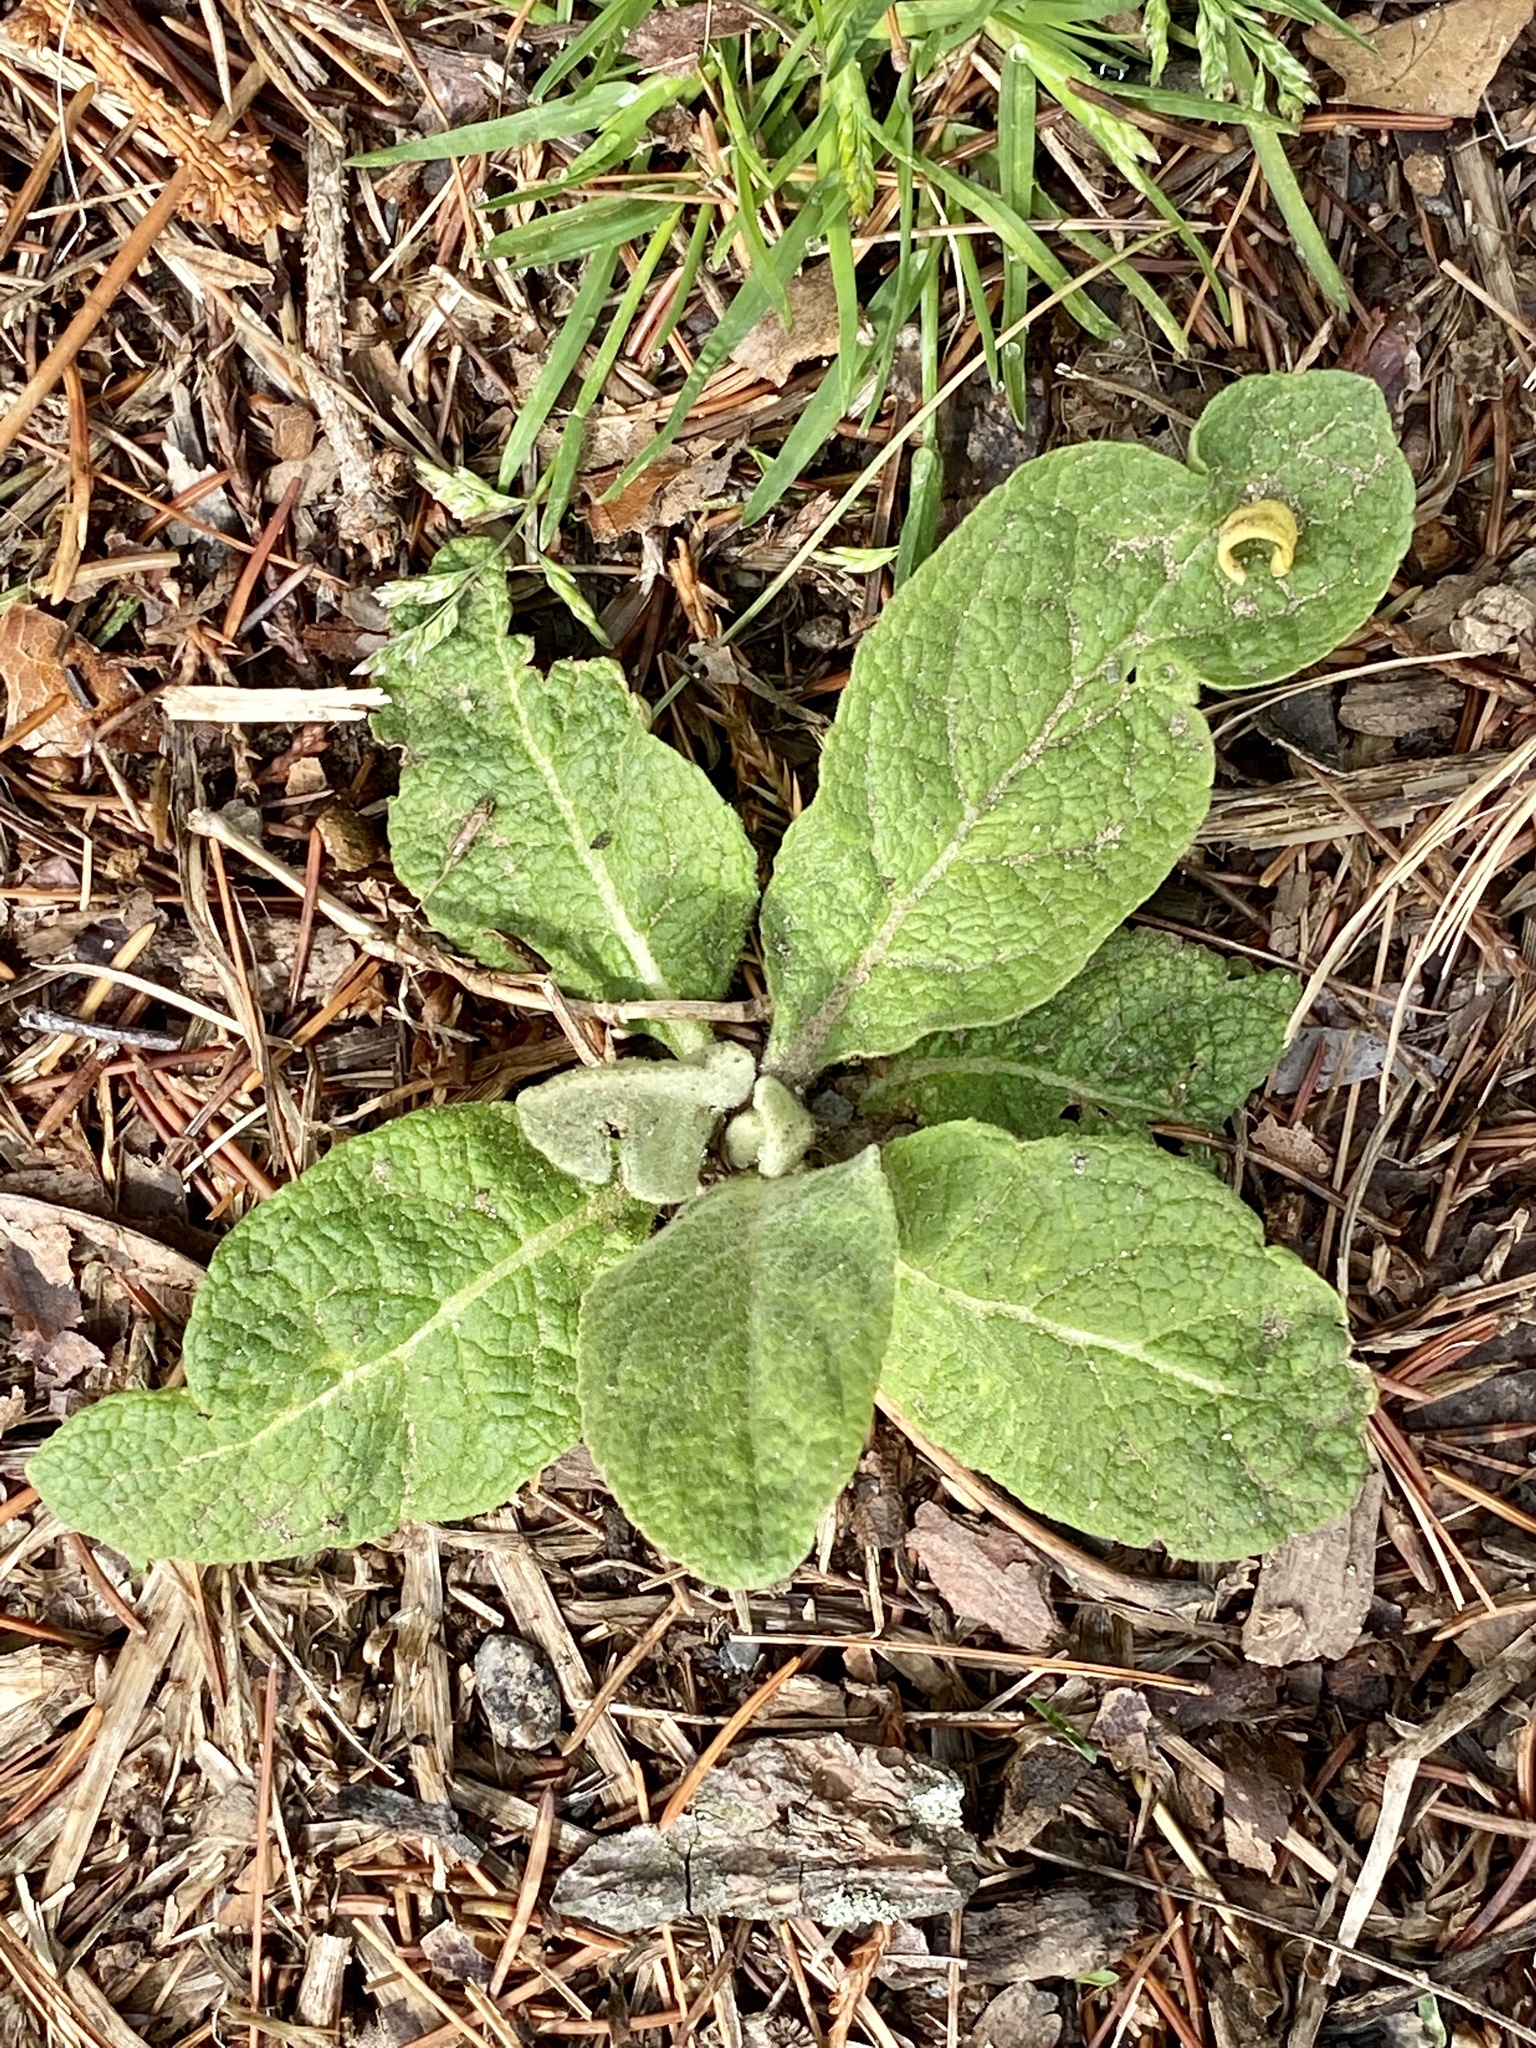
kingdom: Plantae
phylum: Tracheophyta
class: Magnoliopsida
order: Lamiales
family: Scrophulariaceae
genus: Verbascum
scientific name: Verbascum thapsus
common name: Common mullein
